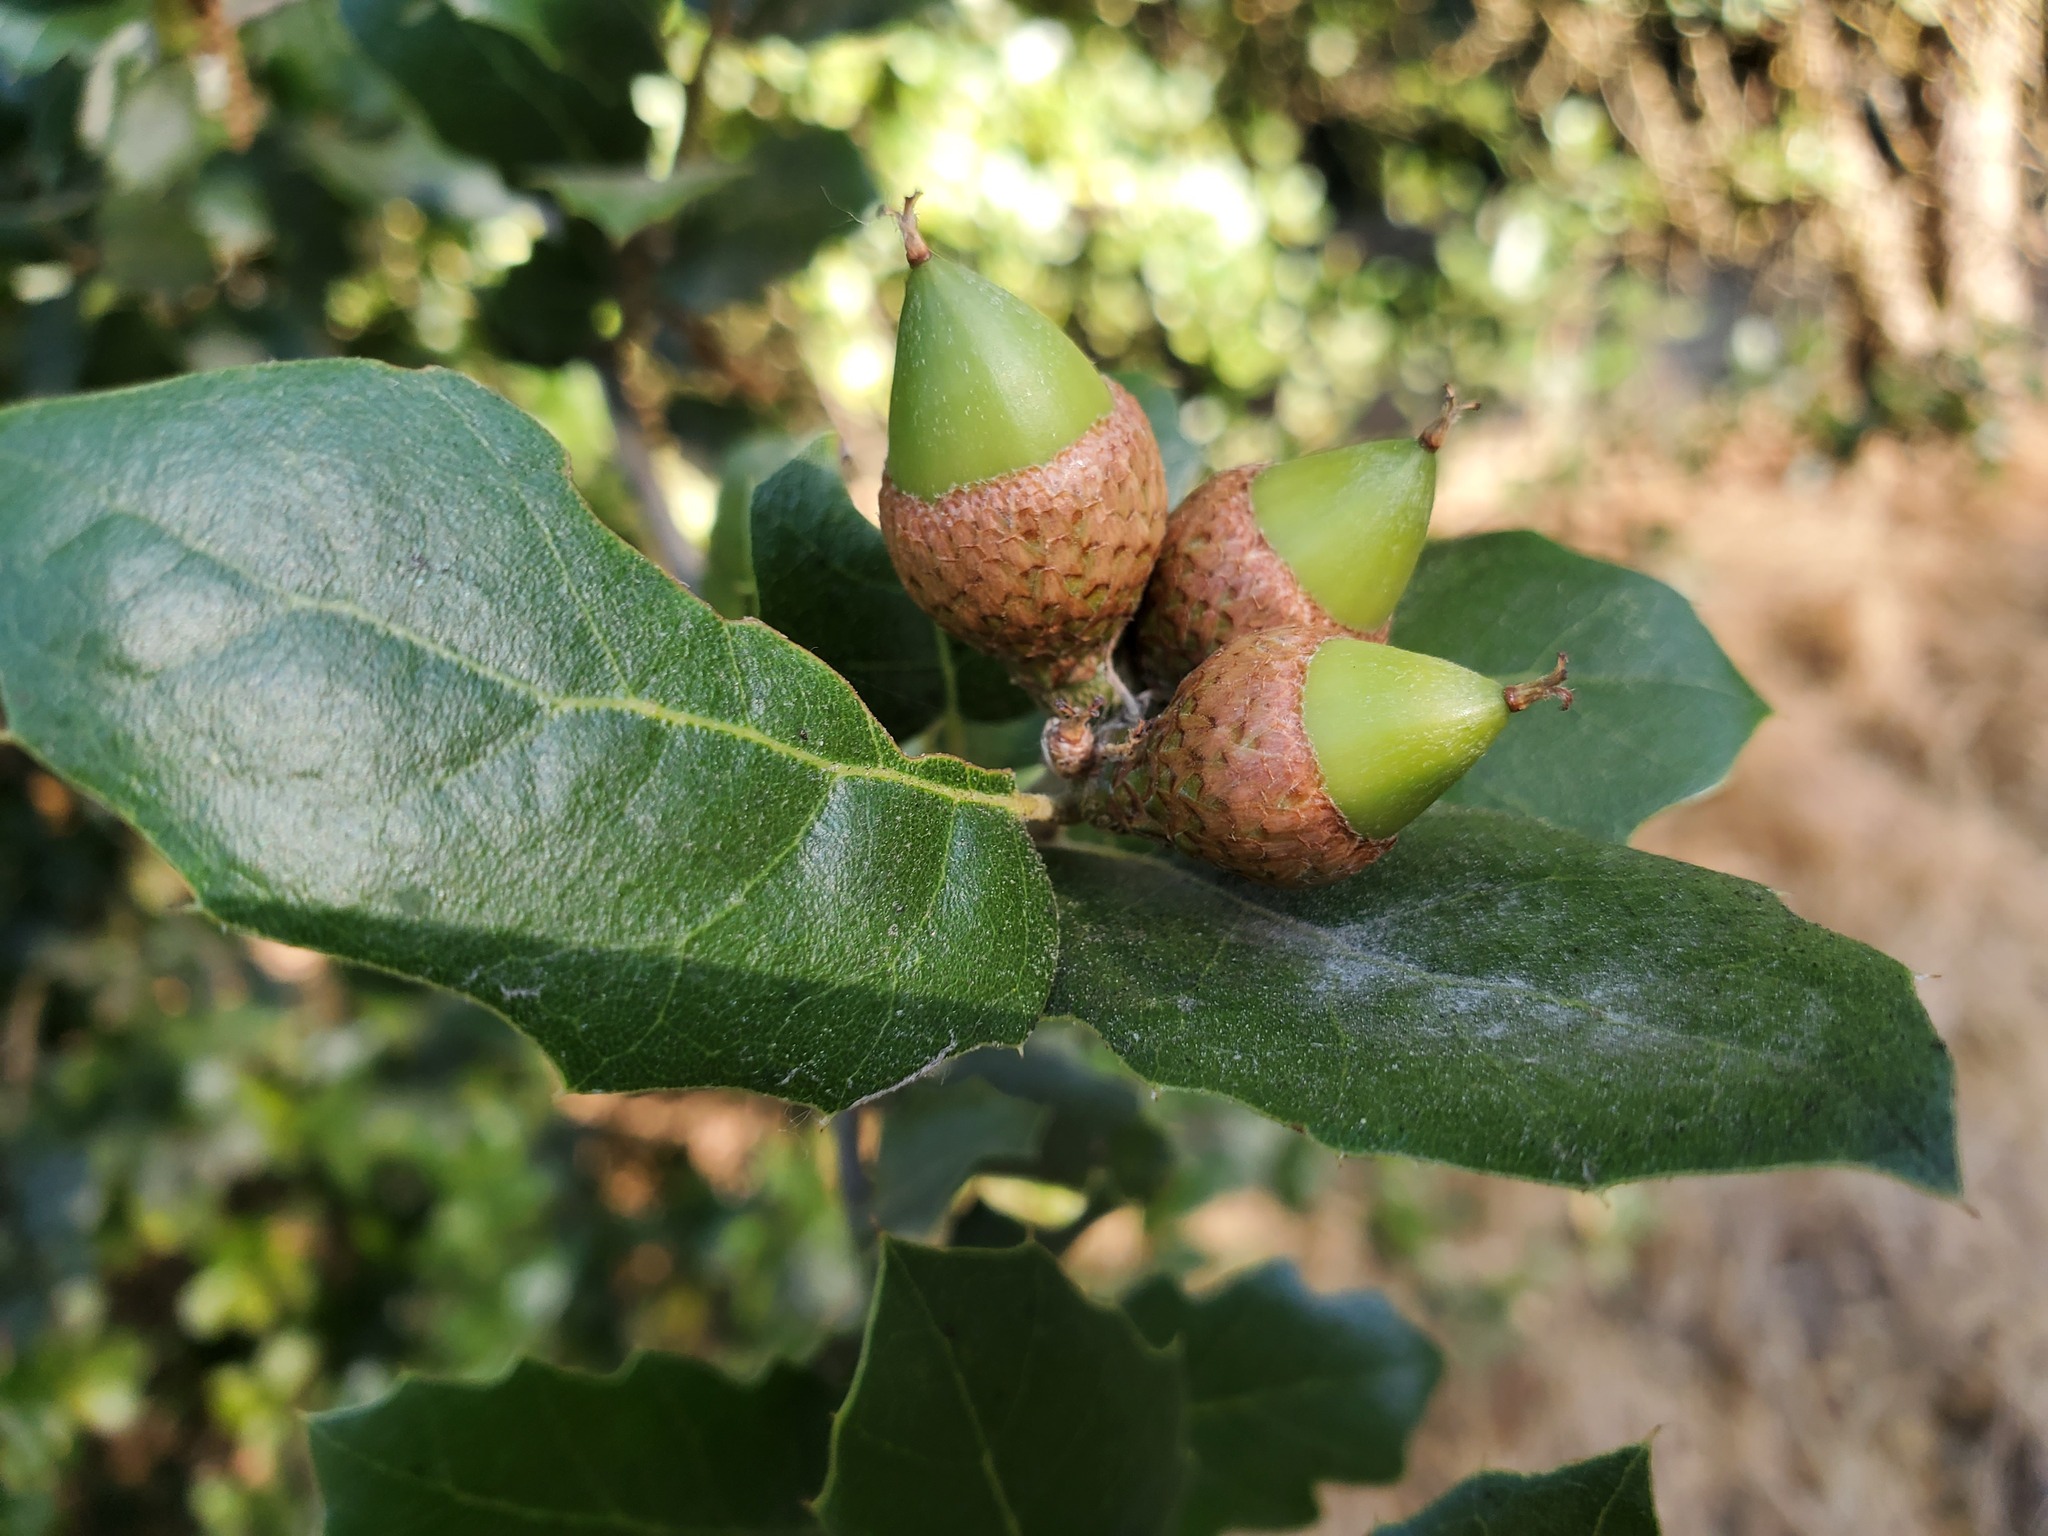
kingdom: Plantae
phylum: Tracheophyta
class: Magnoliopsida
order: Fagales
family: Fagaceae
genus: Quercus
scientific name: Quercus agrifolia
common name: California live oak
